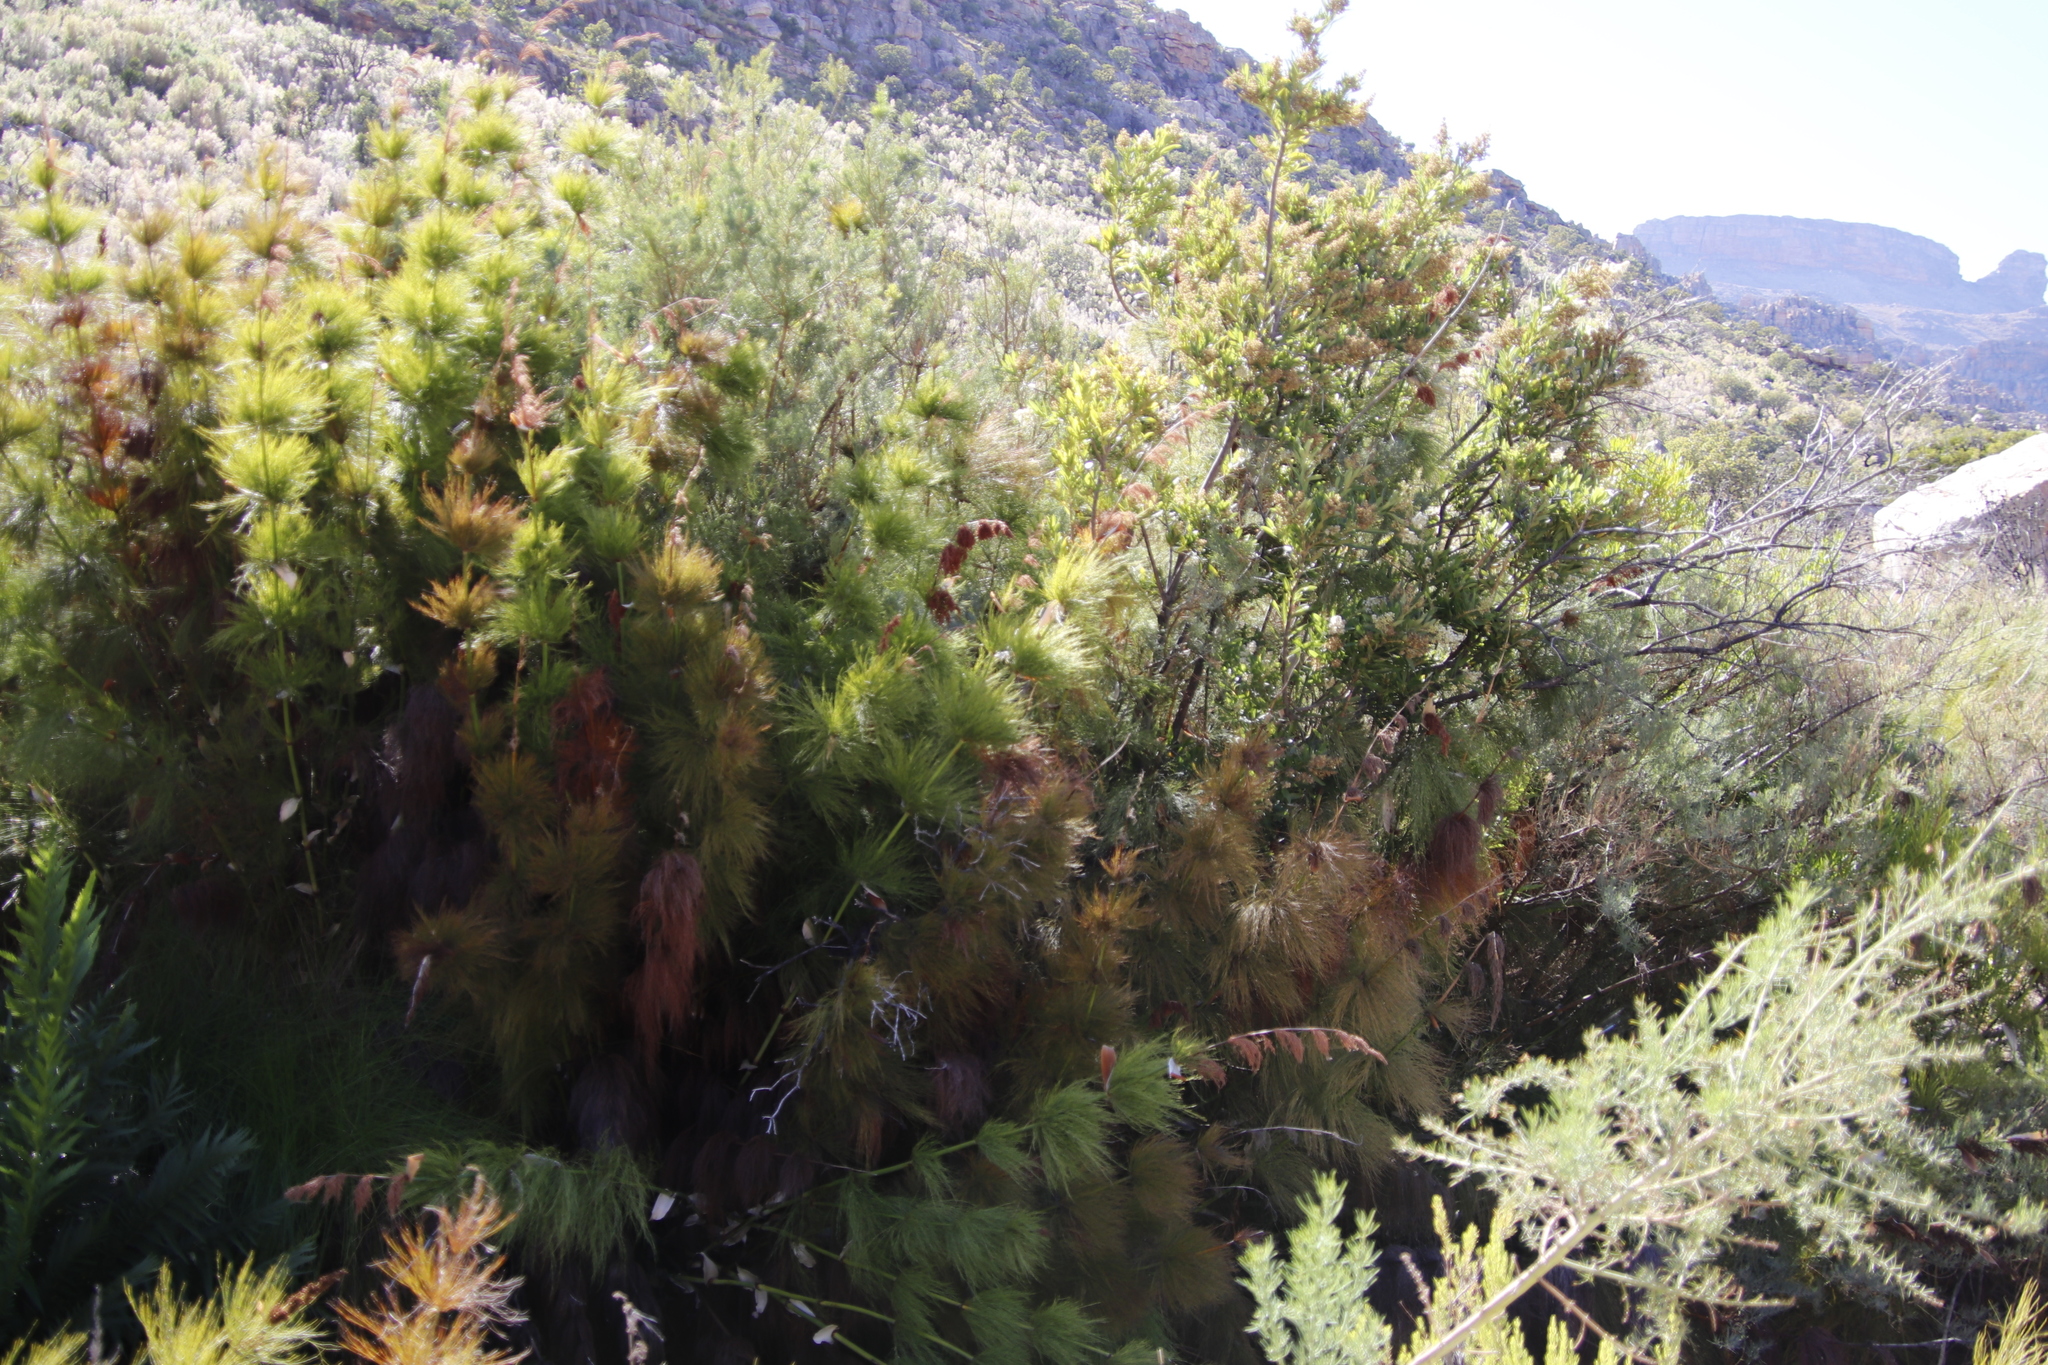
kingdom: Plantae
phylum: Tracheophyta
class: Liliopsida
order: Poales
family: Restionaceae
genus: Elegia
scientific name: Elegia capensis
